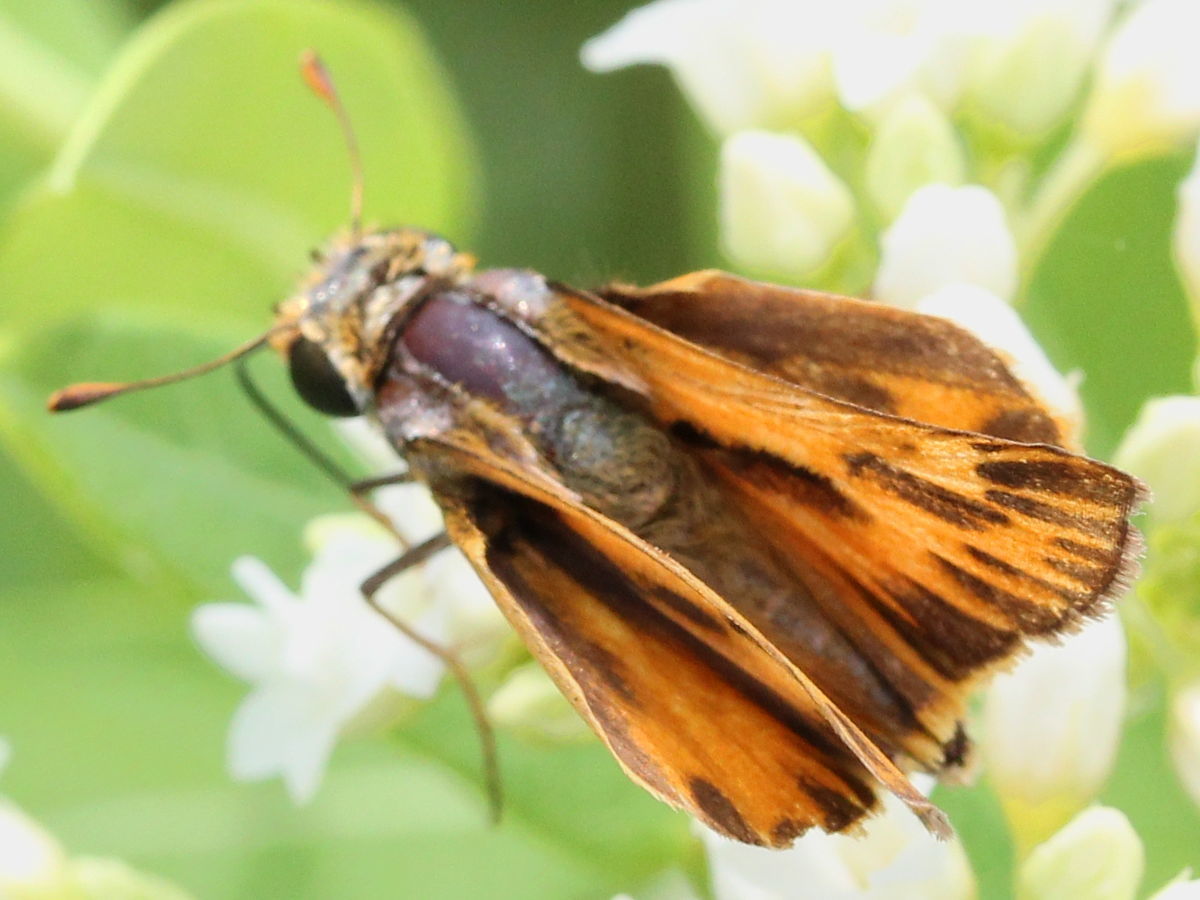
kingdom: Animalia
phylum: Arthropoda
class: Insecta
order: Lepidoptera
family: Hesperiidae
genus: Hylephila
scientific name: Hylephila phyleus
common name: Fiery skipper
